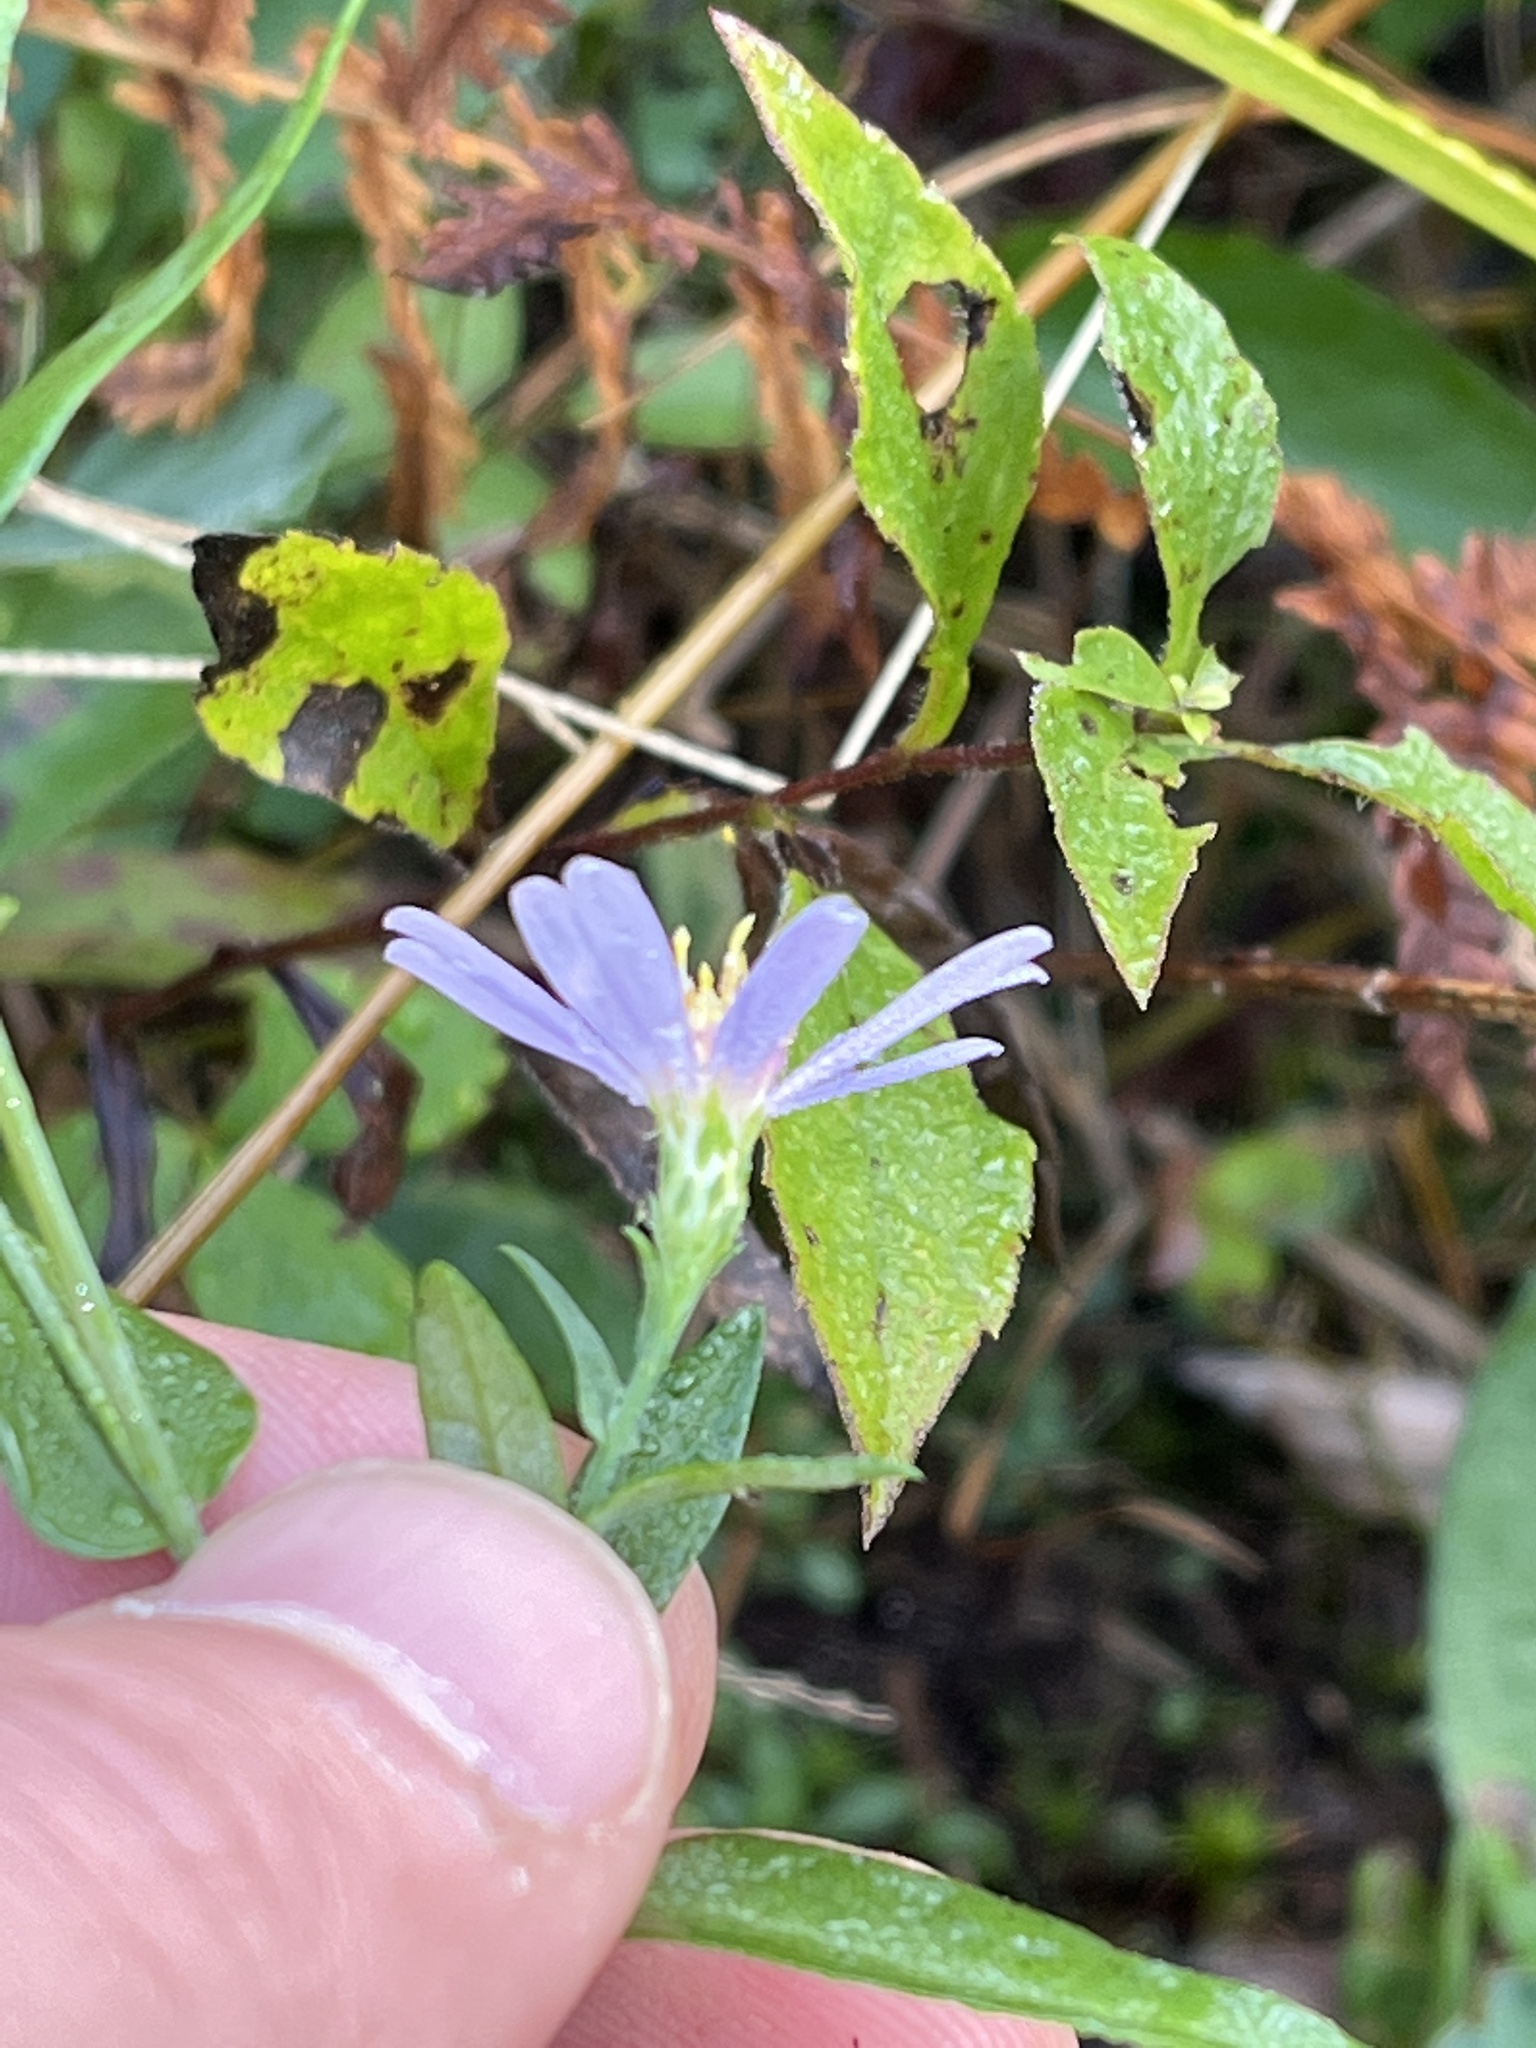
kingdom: Plantae
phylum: Tracheophyta
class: Magnoliopsida
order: Asterales
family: Asteraceae
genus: Symphyotrichum
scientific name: Symphyotrichum laeve
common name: Glaucous aster
